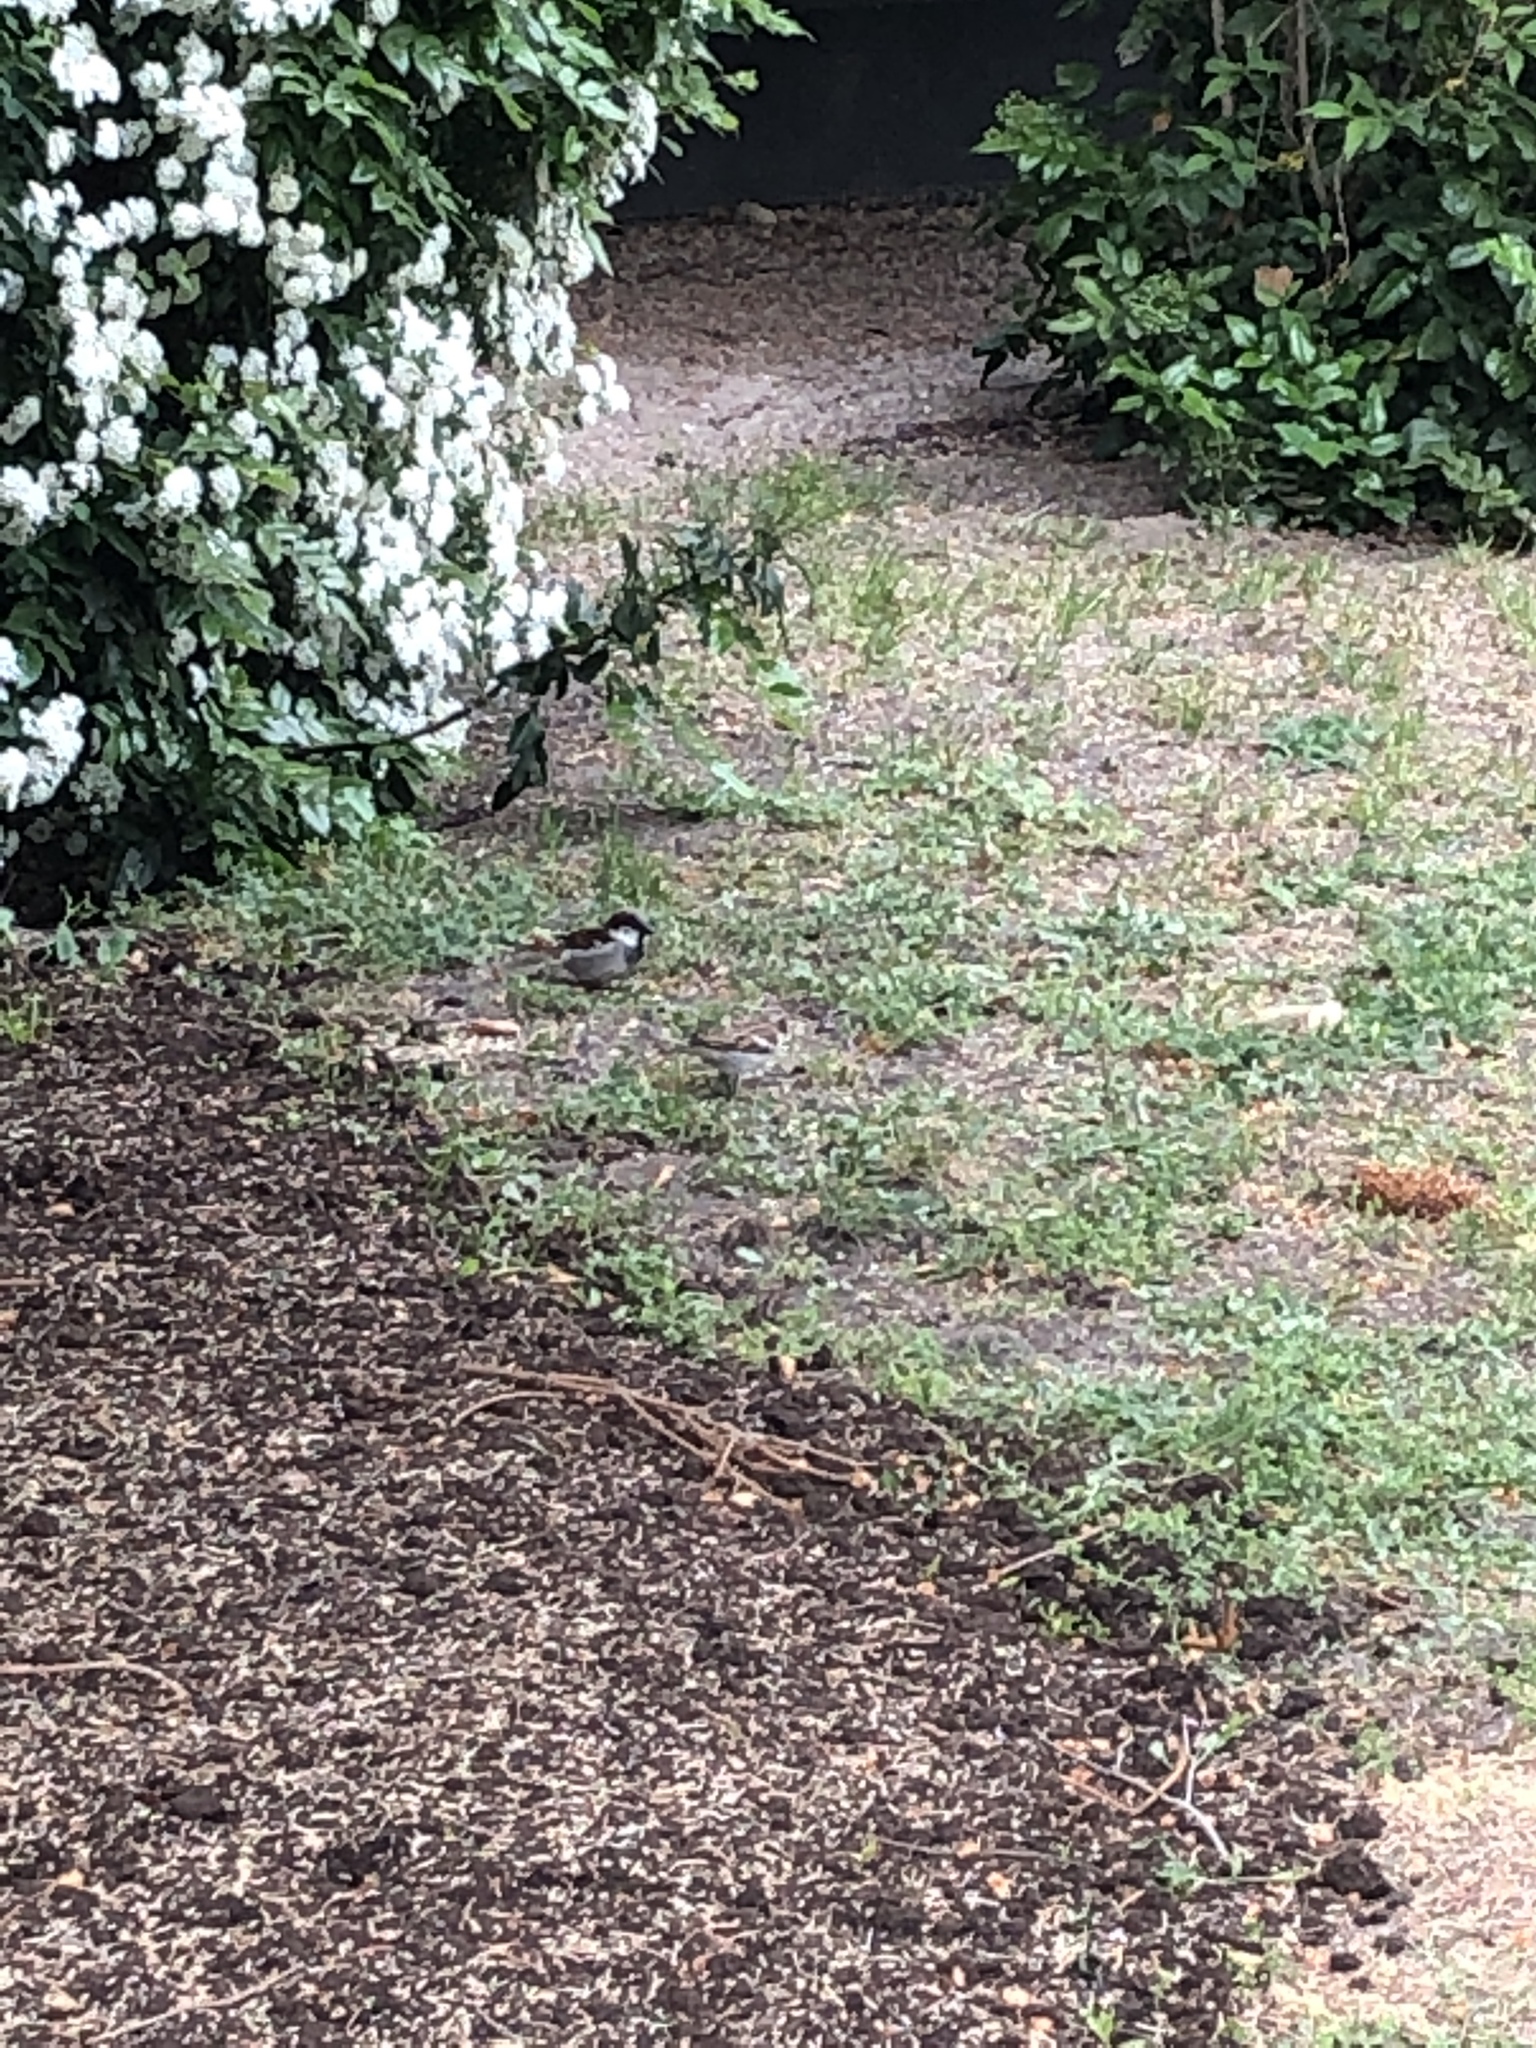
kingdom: Animalia
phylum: Chordata
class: Aves
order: Passeriformes
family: Passeridae
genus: Passer
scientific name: Passer domesticus
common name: House sparrow
